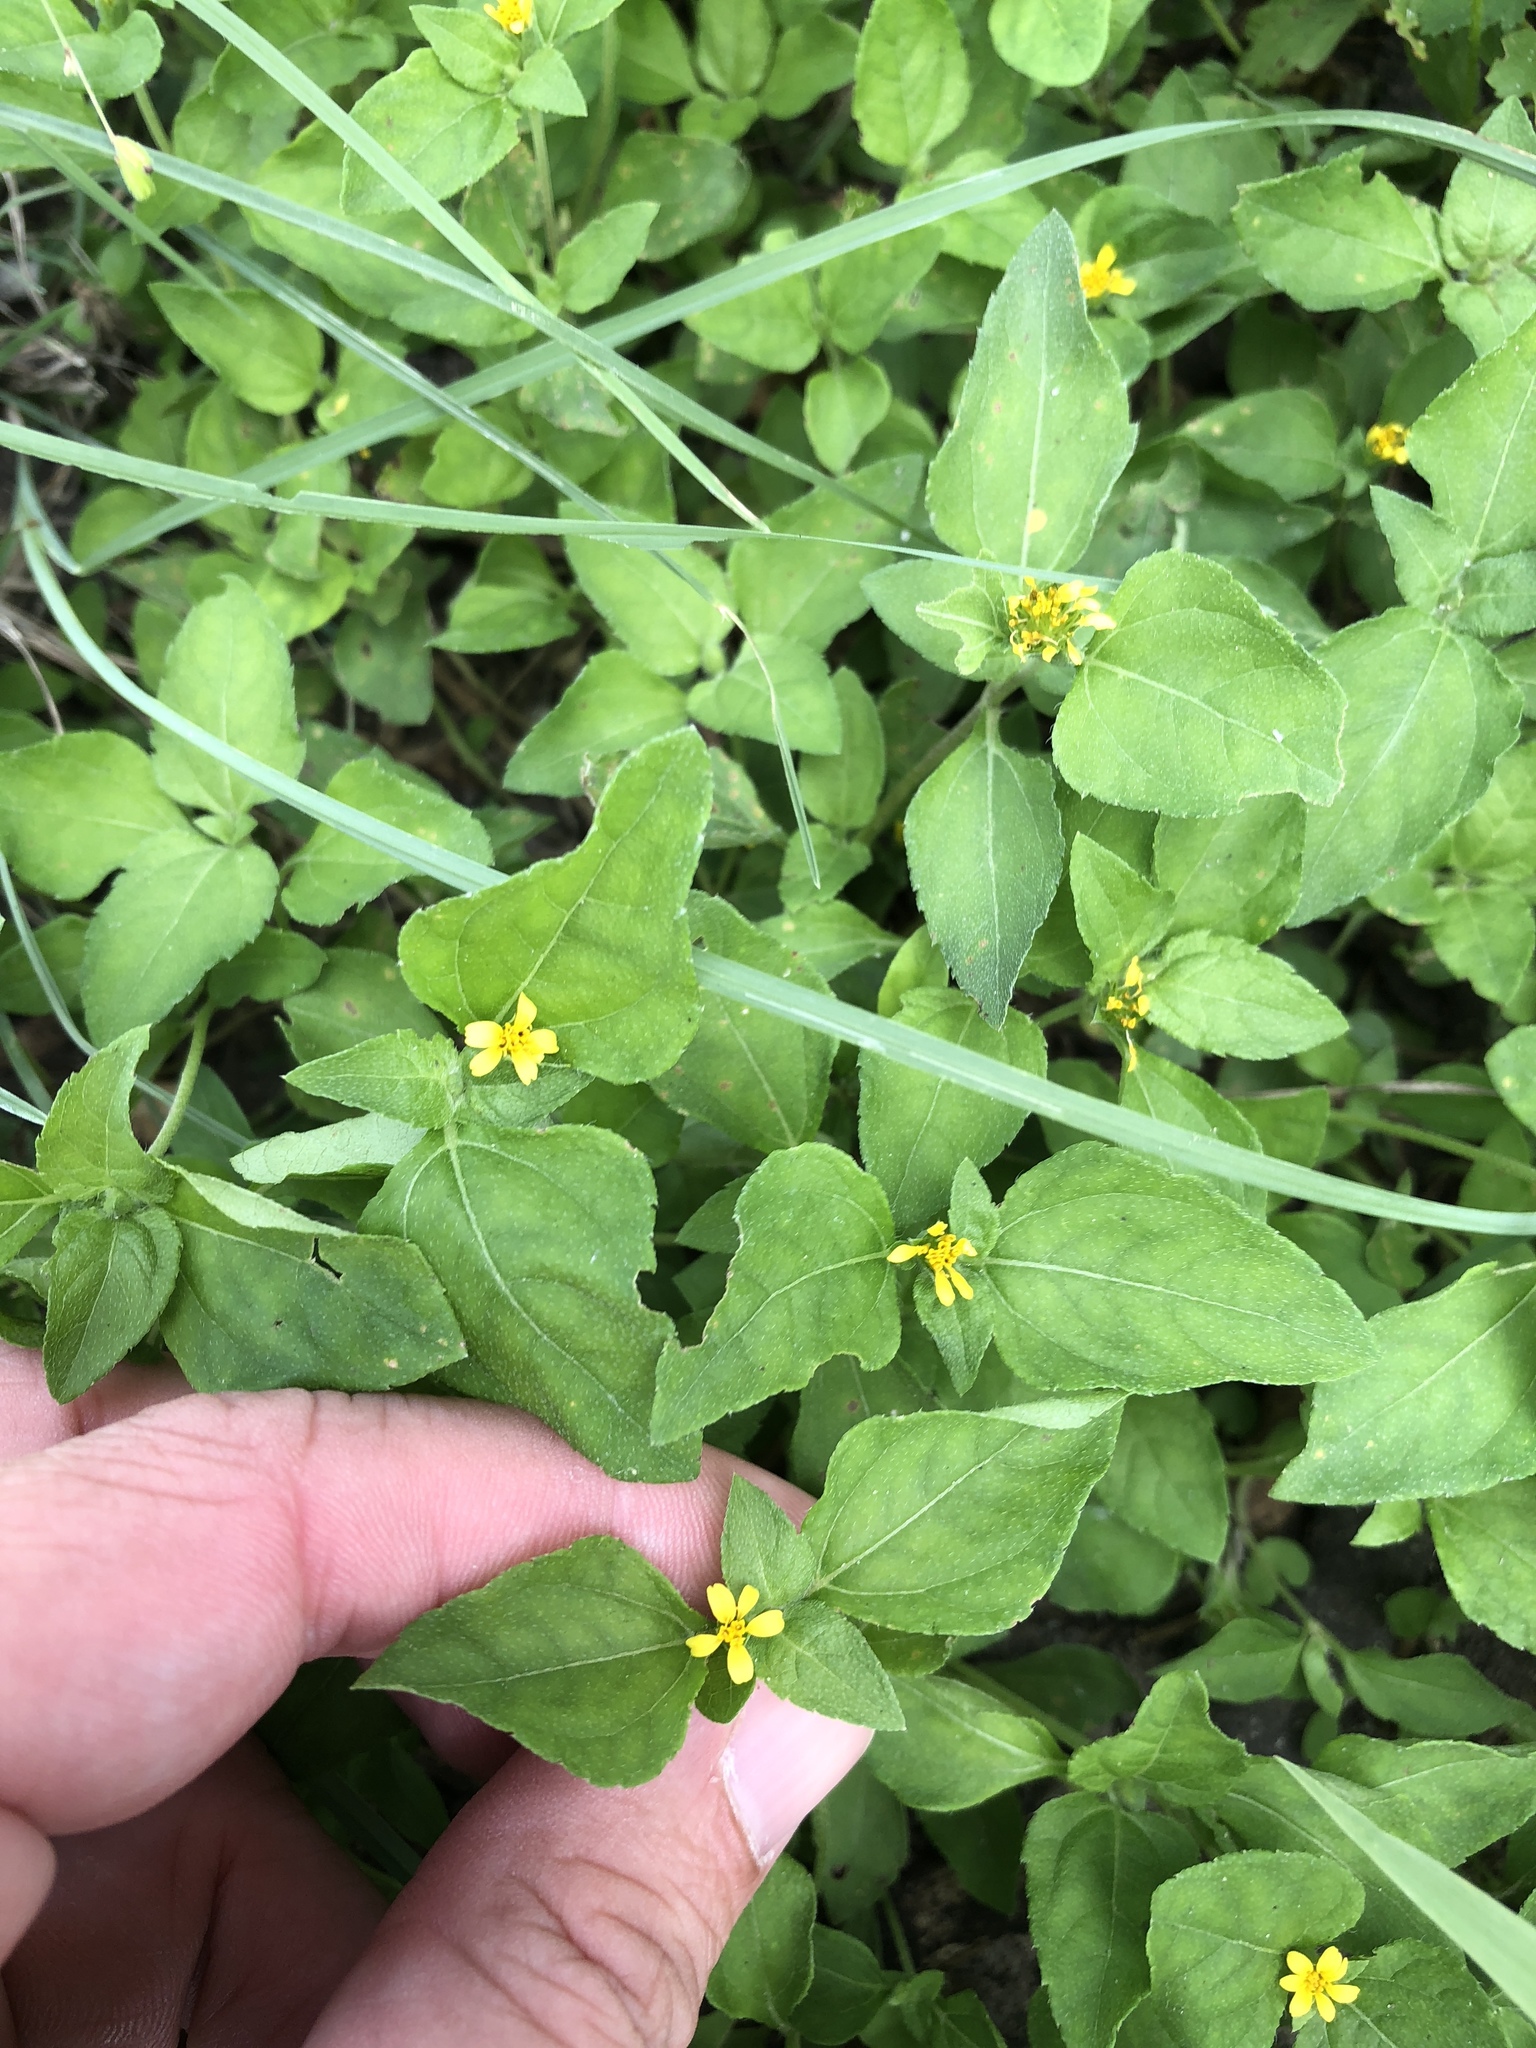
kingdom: Plantae
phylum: Tracheophyta
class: Magnoliopsida
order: Asterales
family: Asteraceae
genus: Calyptocarpus
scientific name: Calyptocarpus vialis
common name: Straggler daisy
